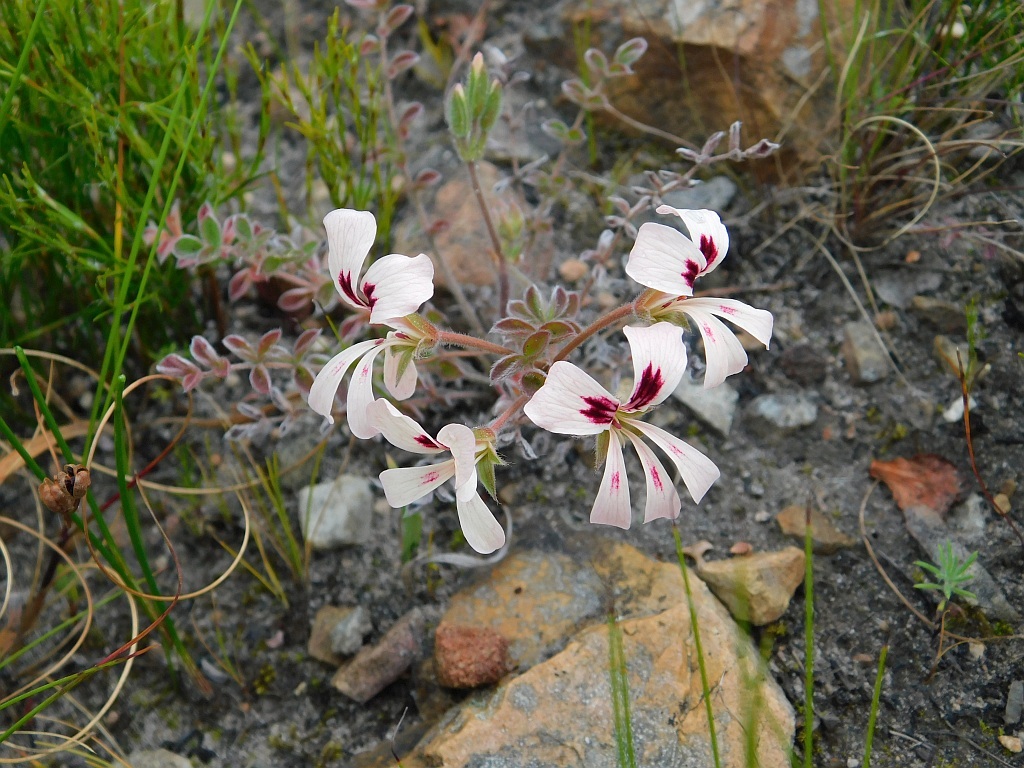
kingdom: Plantae
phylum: Tracheophyta
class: Magnoliopsida
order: Geraniales
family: Geraniaceae
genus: Pelargonium
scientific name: Pelargonium pinnatum
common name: Pinnated pelargonium
